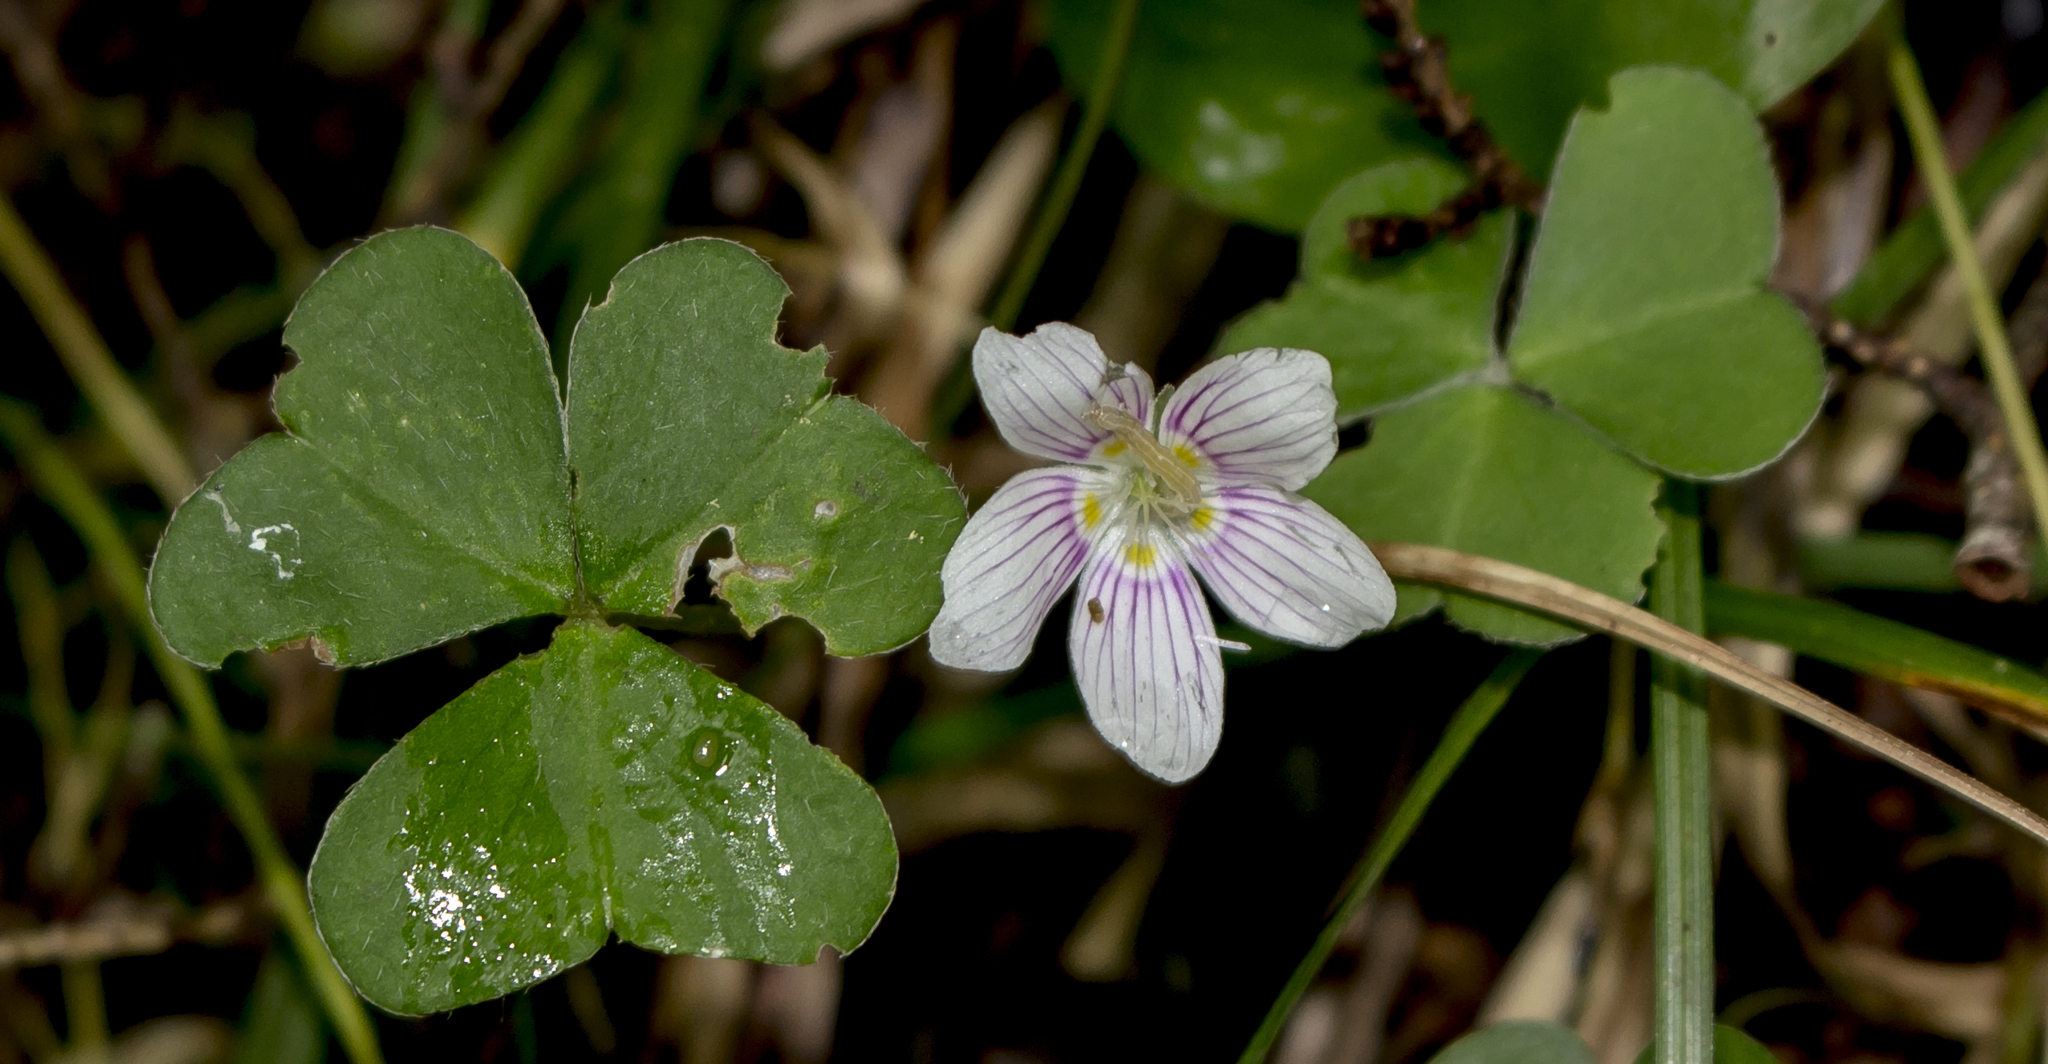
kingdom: Plantae
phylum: Tracheophyta
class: Magnoliopsida
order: Oxalidales
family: Oxalidaceae
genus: Oxalis
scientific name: Oxalis montana
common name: American wood-sorrel
